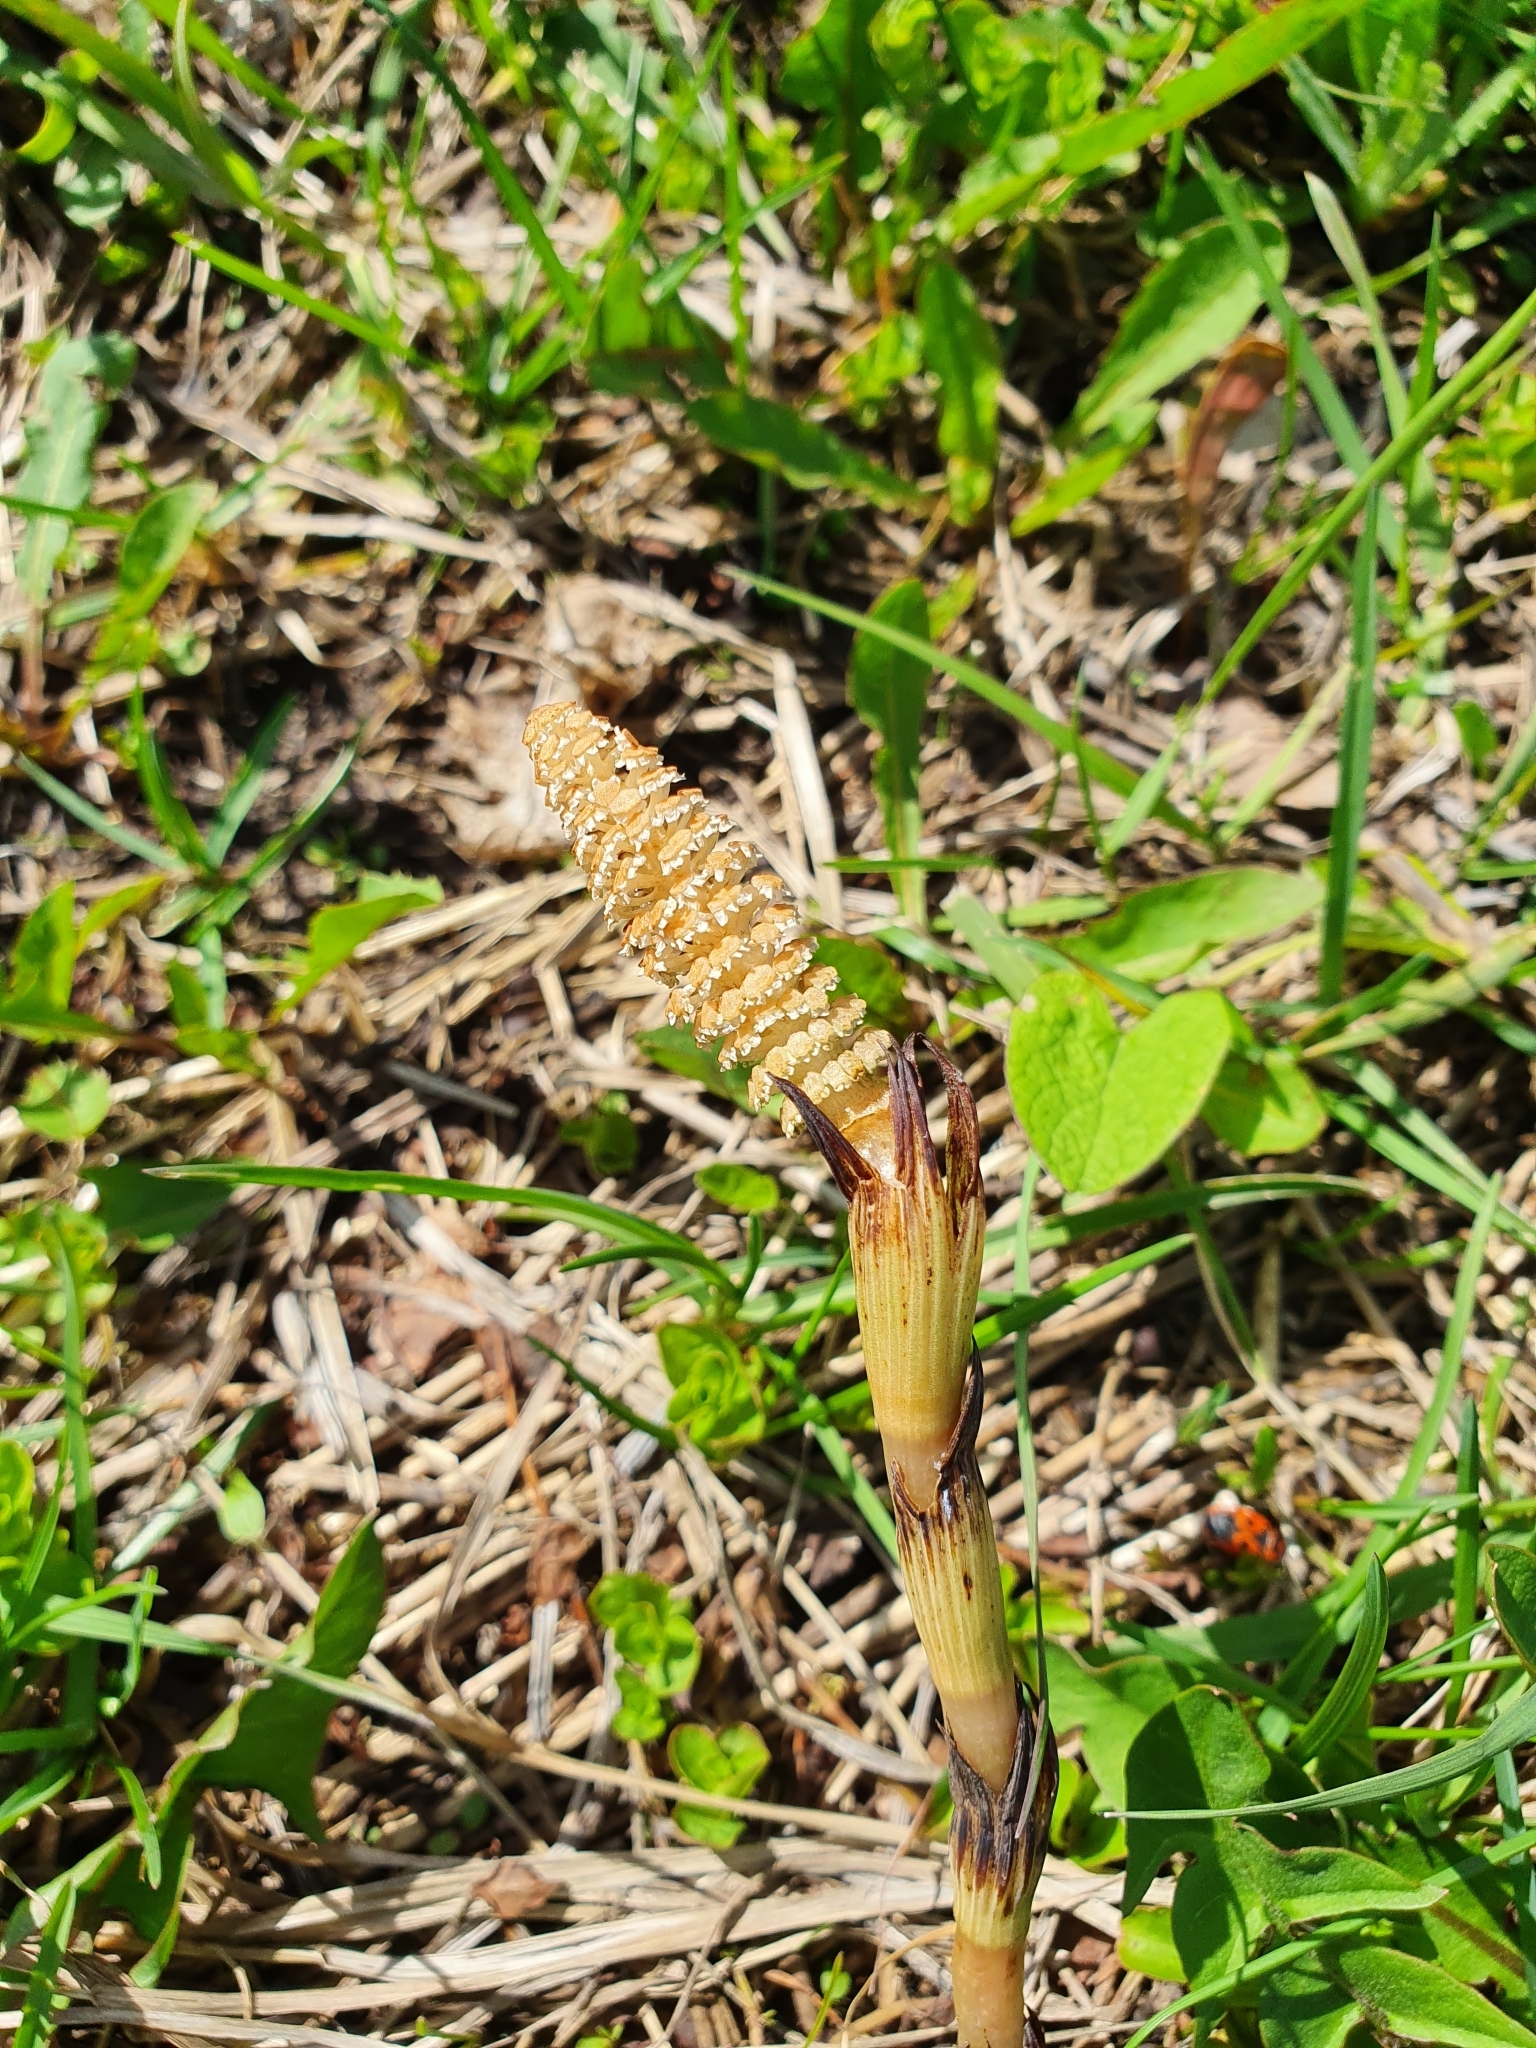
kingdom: Plantae
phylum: Tracheophyta
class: Polypodiopsida
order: Equisetales
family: Equisetaceae
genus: Equisetum
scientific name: Equisetum arvense
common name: Field horsetail
